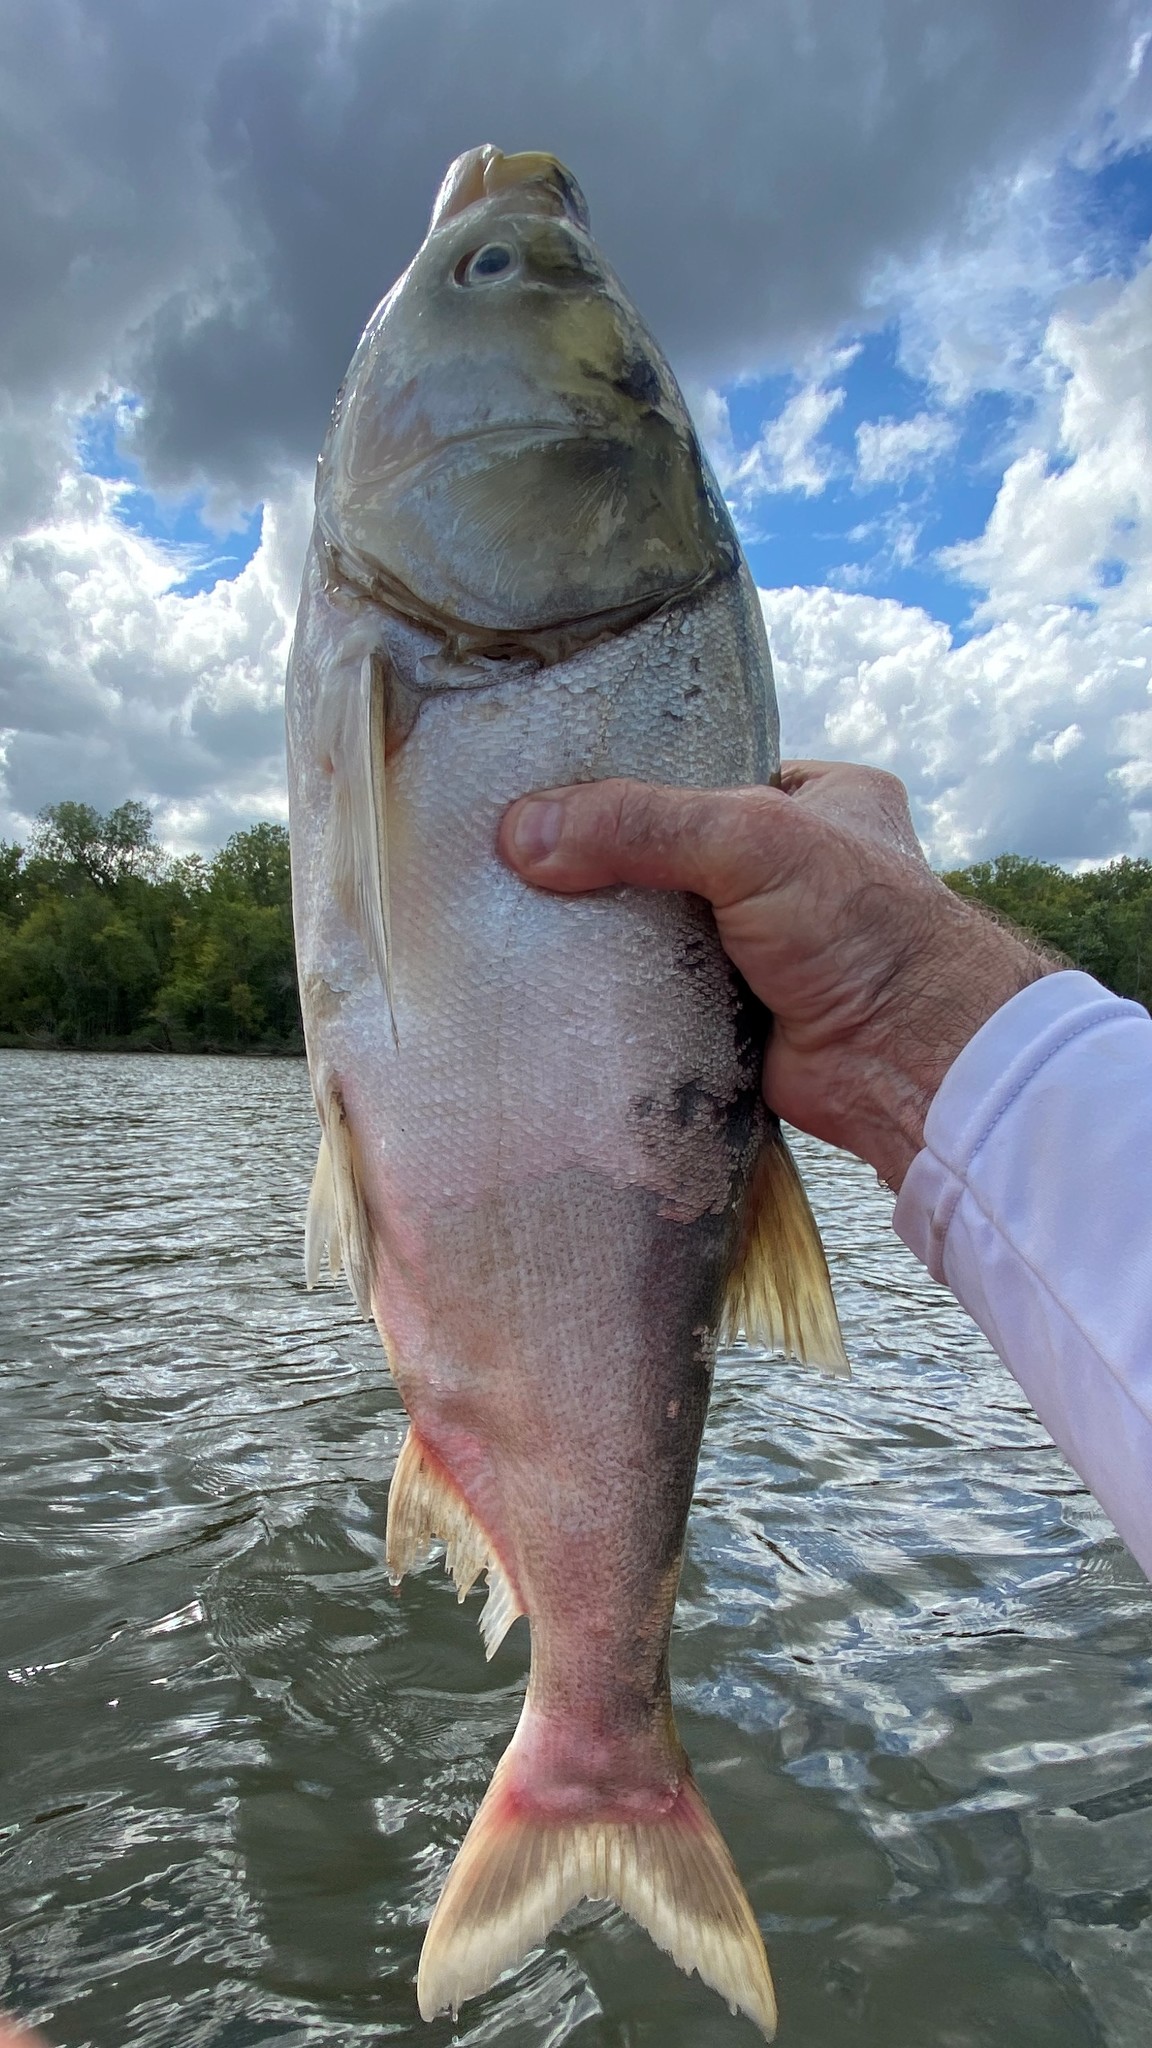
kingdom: Animalia
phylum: Chordata
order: Cypriniformes
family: Cyprinidae
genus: Hypophthalmichthys
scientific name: Hypophthalmichthys molitrix
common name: Silver carp
